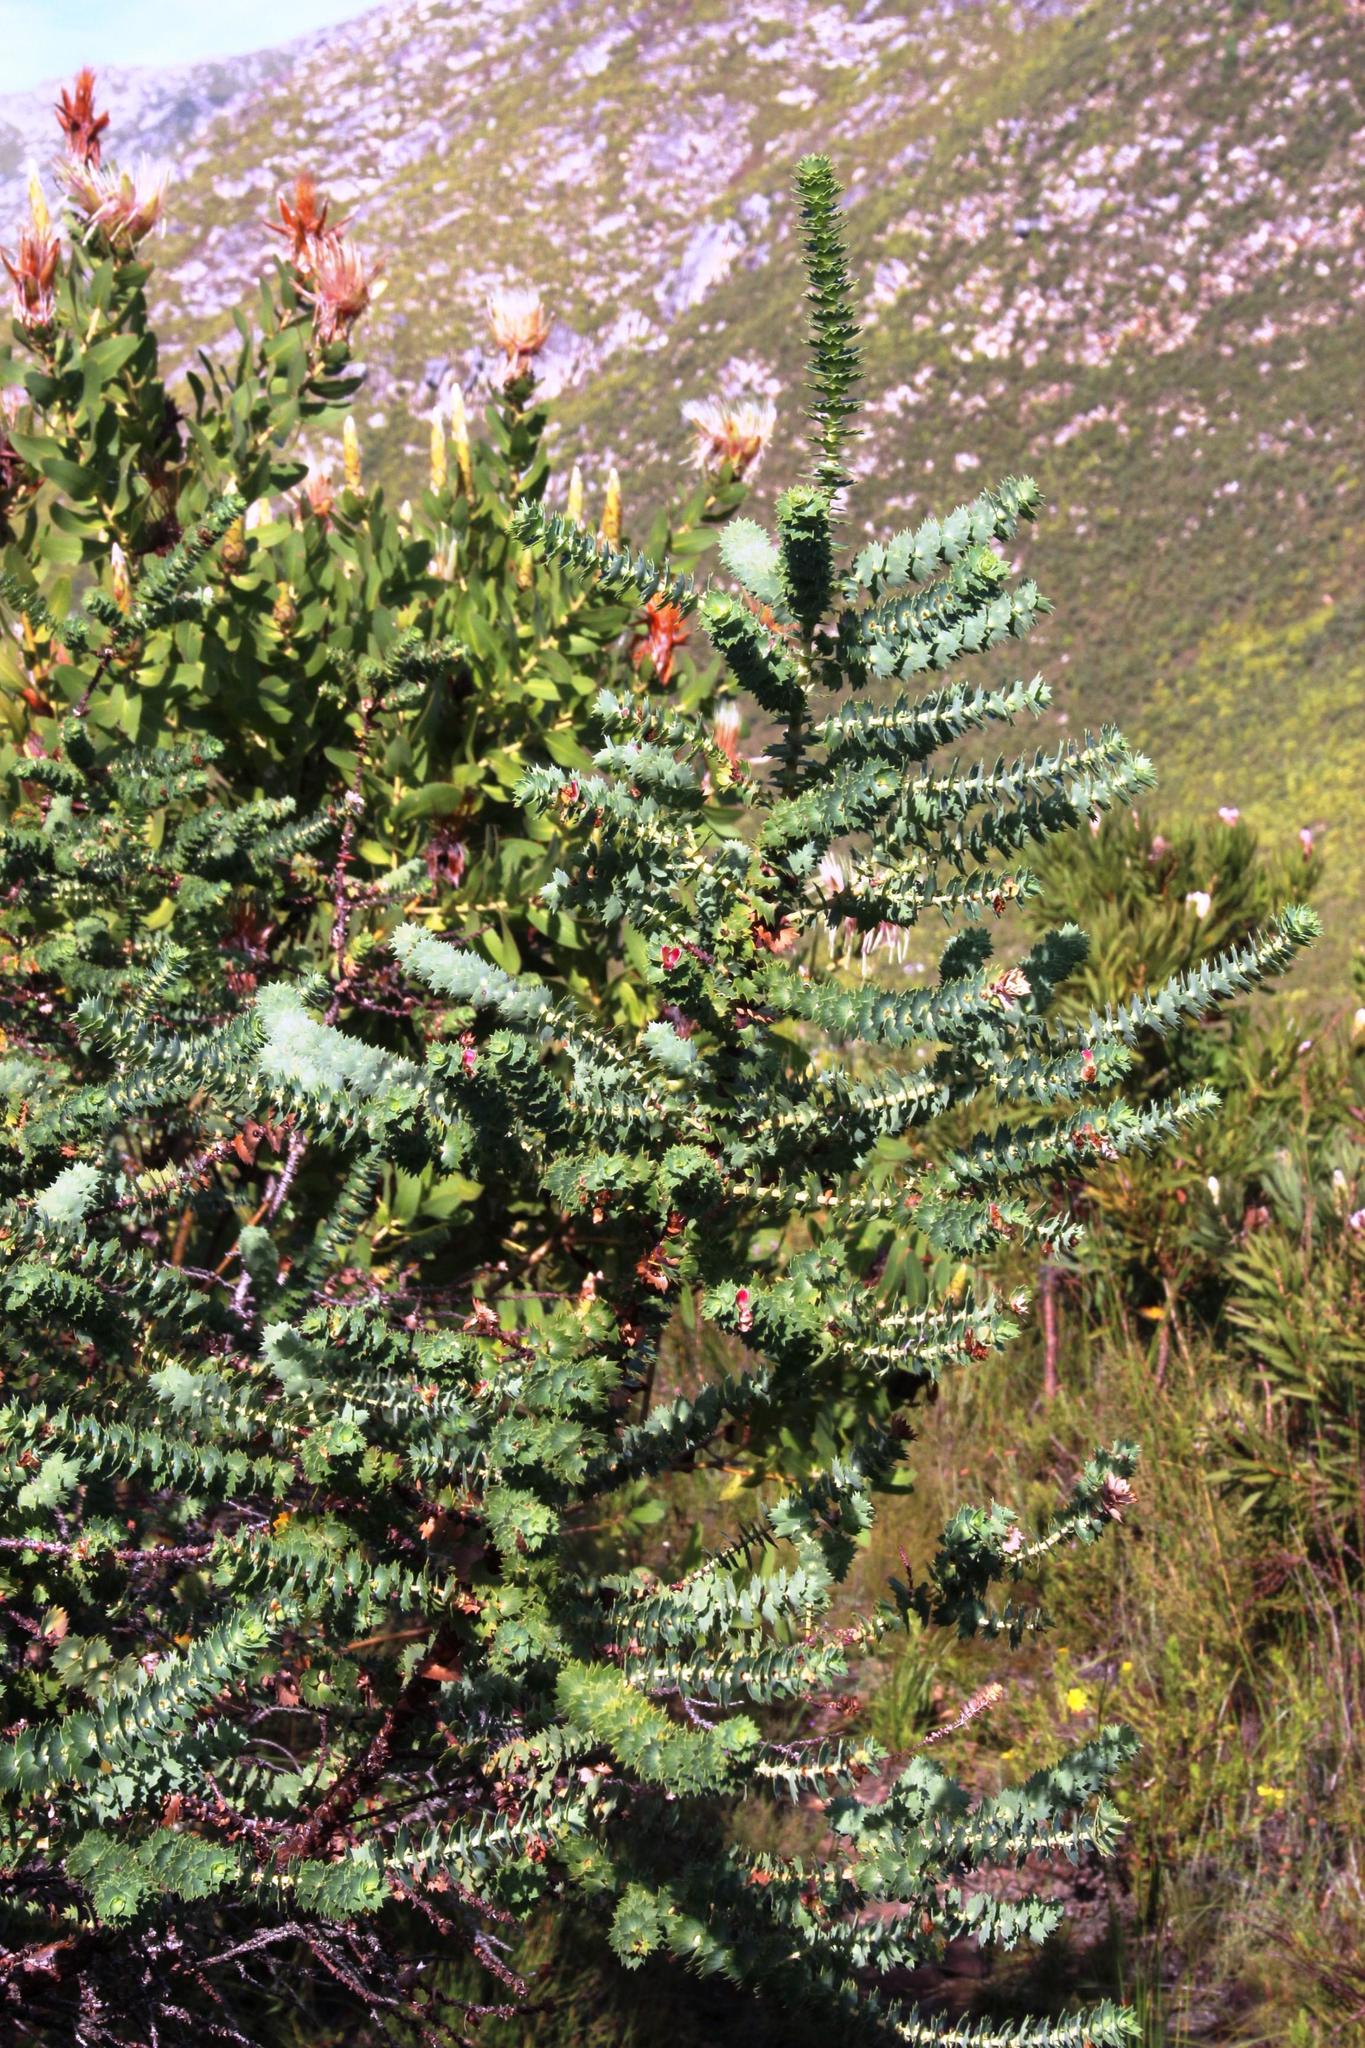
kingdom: Plantae
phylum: Tracheophyta
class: Magnoliopsida
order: Rosales
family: Rosaceae
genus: Cliffortia
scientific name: Cliffortia reniformis
